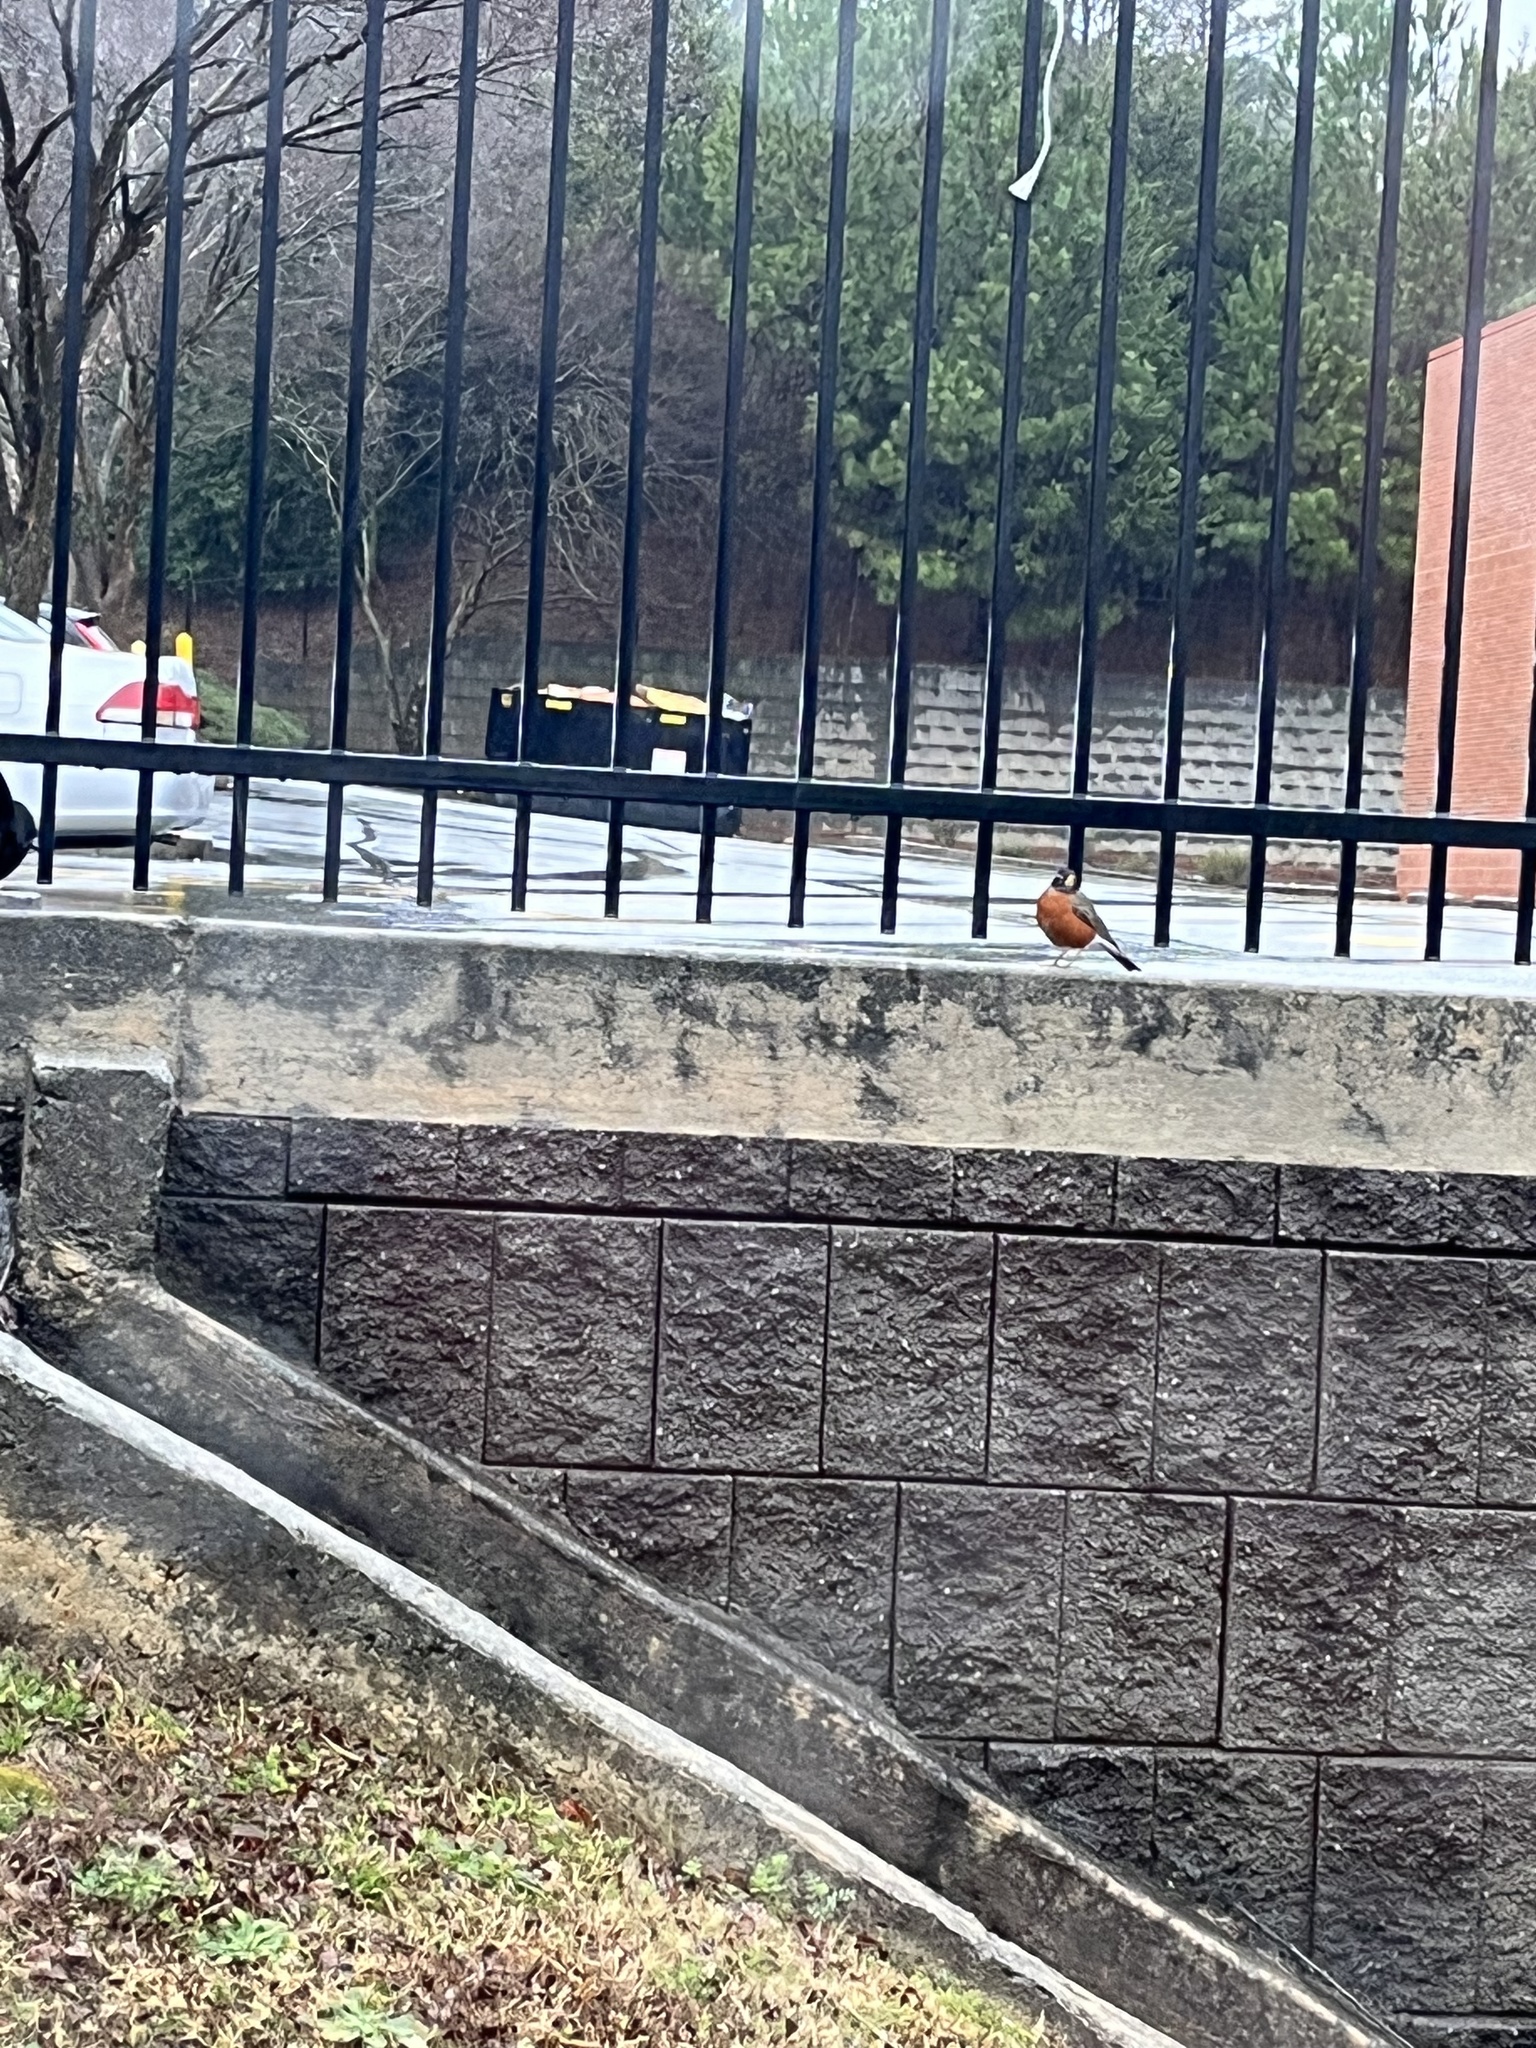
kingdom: Animalia
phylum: Chordata
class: Aves
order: Passeriformes
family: Turdidae
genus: Turdus
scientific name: Turdus migratorius
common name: American robin
